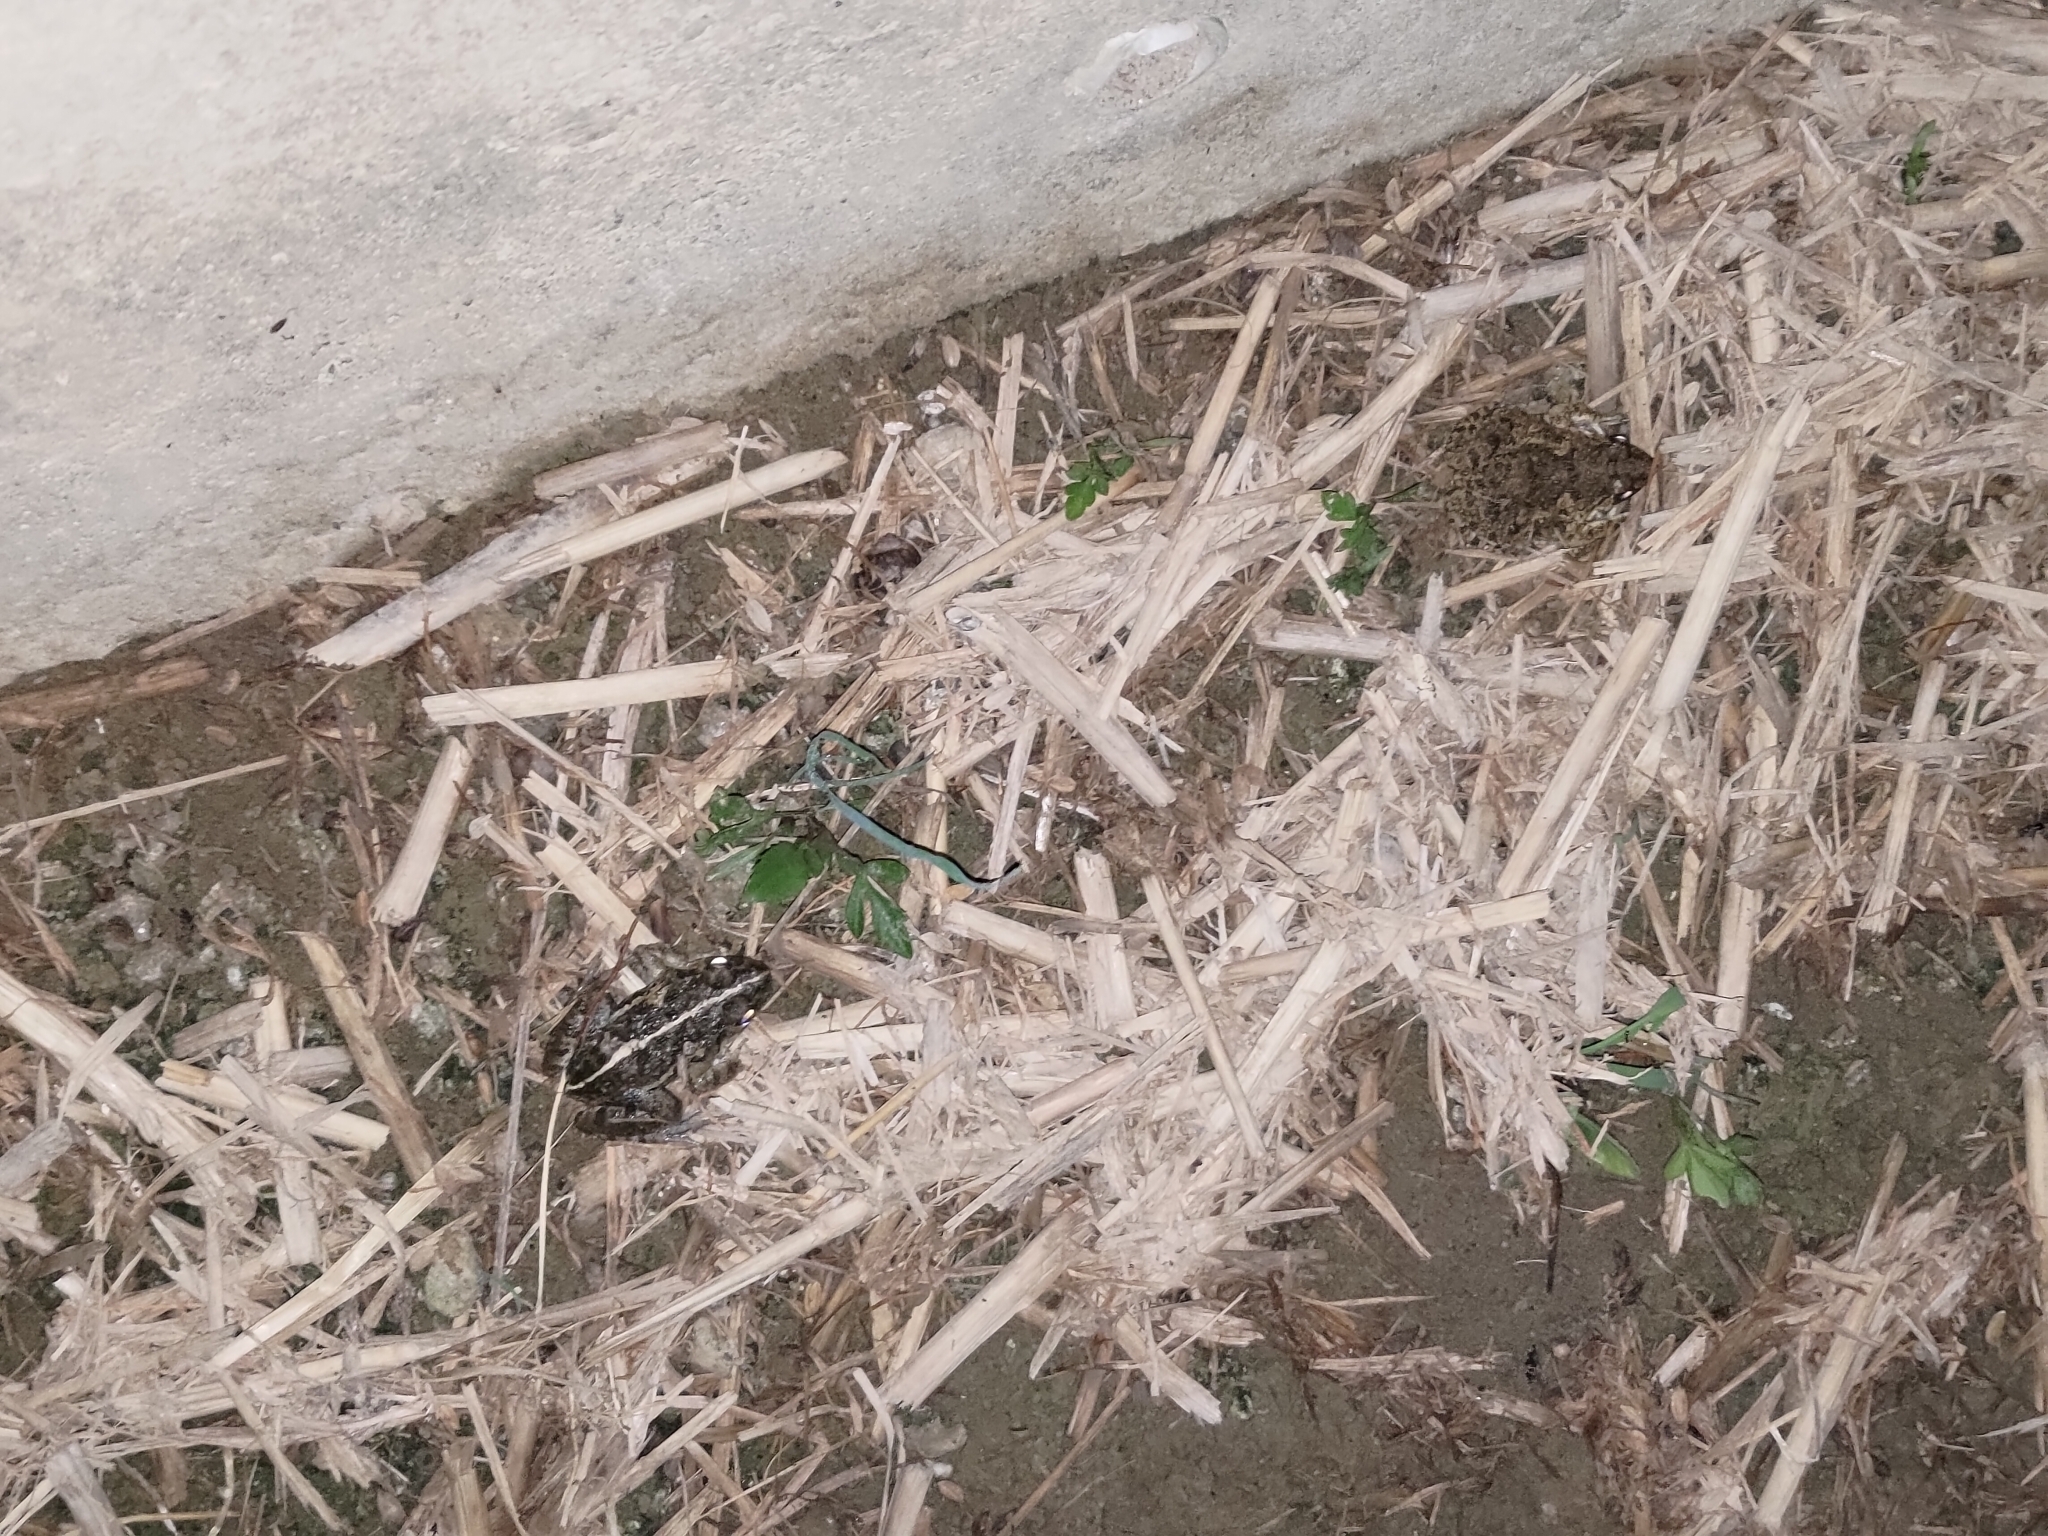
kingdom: Animalia
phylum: Chordata
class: Amphibia
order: Anura
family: Dicroglossidae
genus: Fejervarya
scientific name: Fejervarya limnocharis
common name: Asian grass frog/common pond frog/field frog/grass frog/indian rice frog
